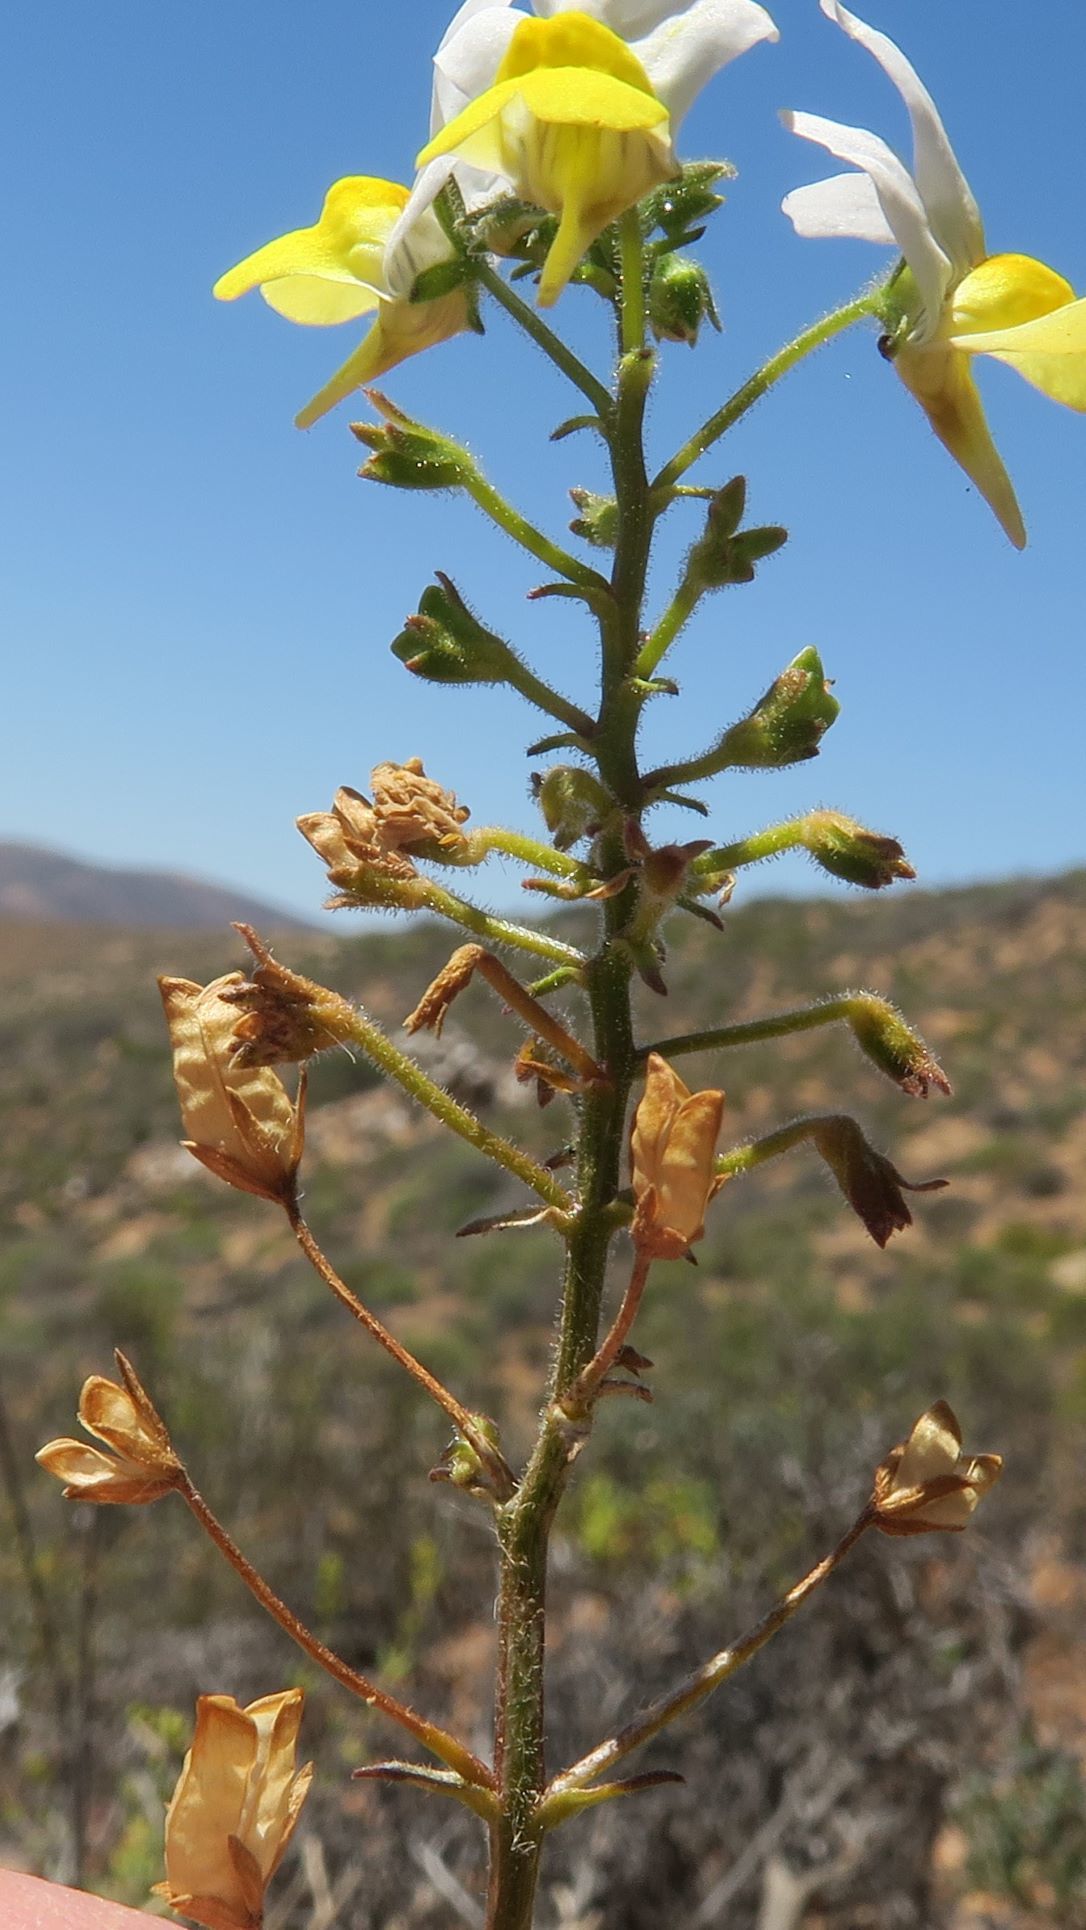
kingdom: Plantae
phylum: Tracheophyta
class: Magnoliopsida
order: Lamiales
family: Scrophulariaceae
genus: Nemesia
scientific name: Nemesia anisocarpa
